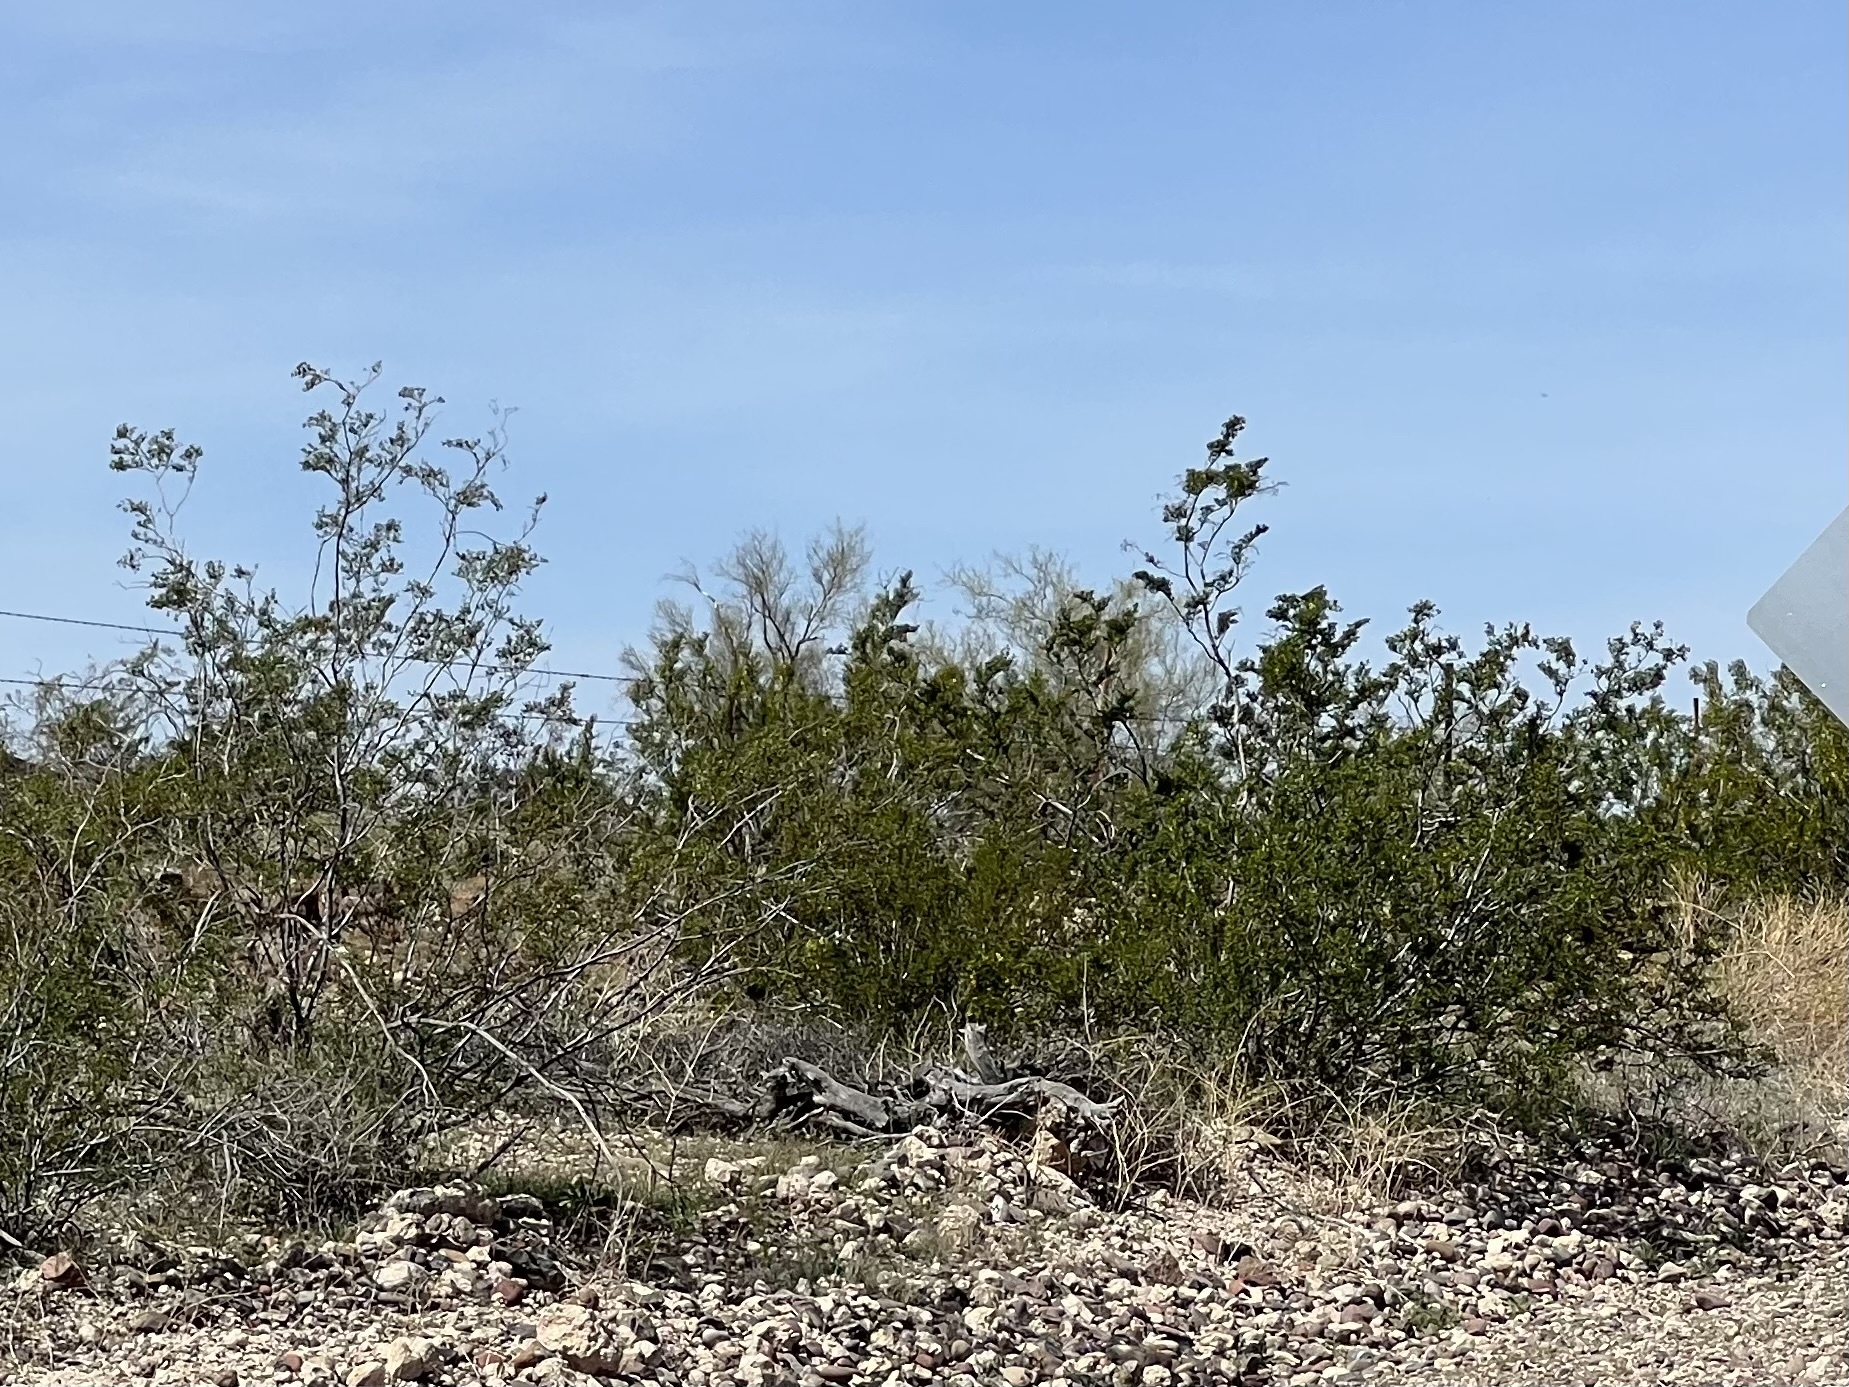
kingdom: Plantae
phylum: Tracheophyta
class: Magnoliopsida
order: Zygophyllales
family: Zygophyllaceae
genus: Larrea
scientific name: Larrea tridentata
